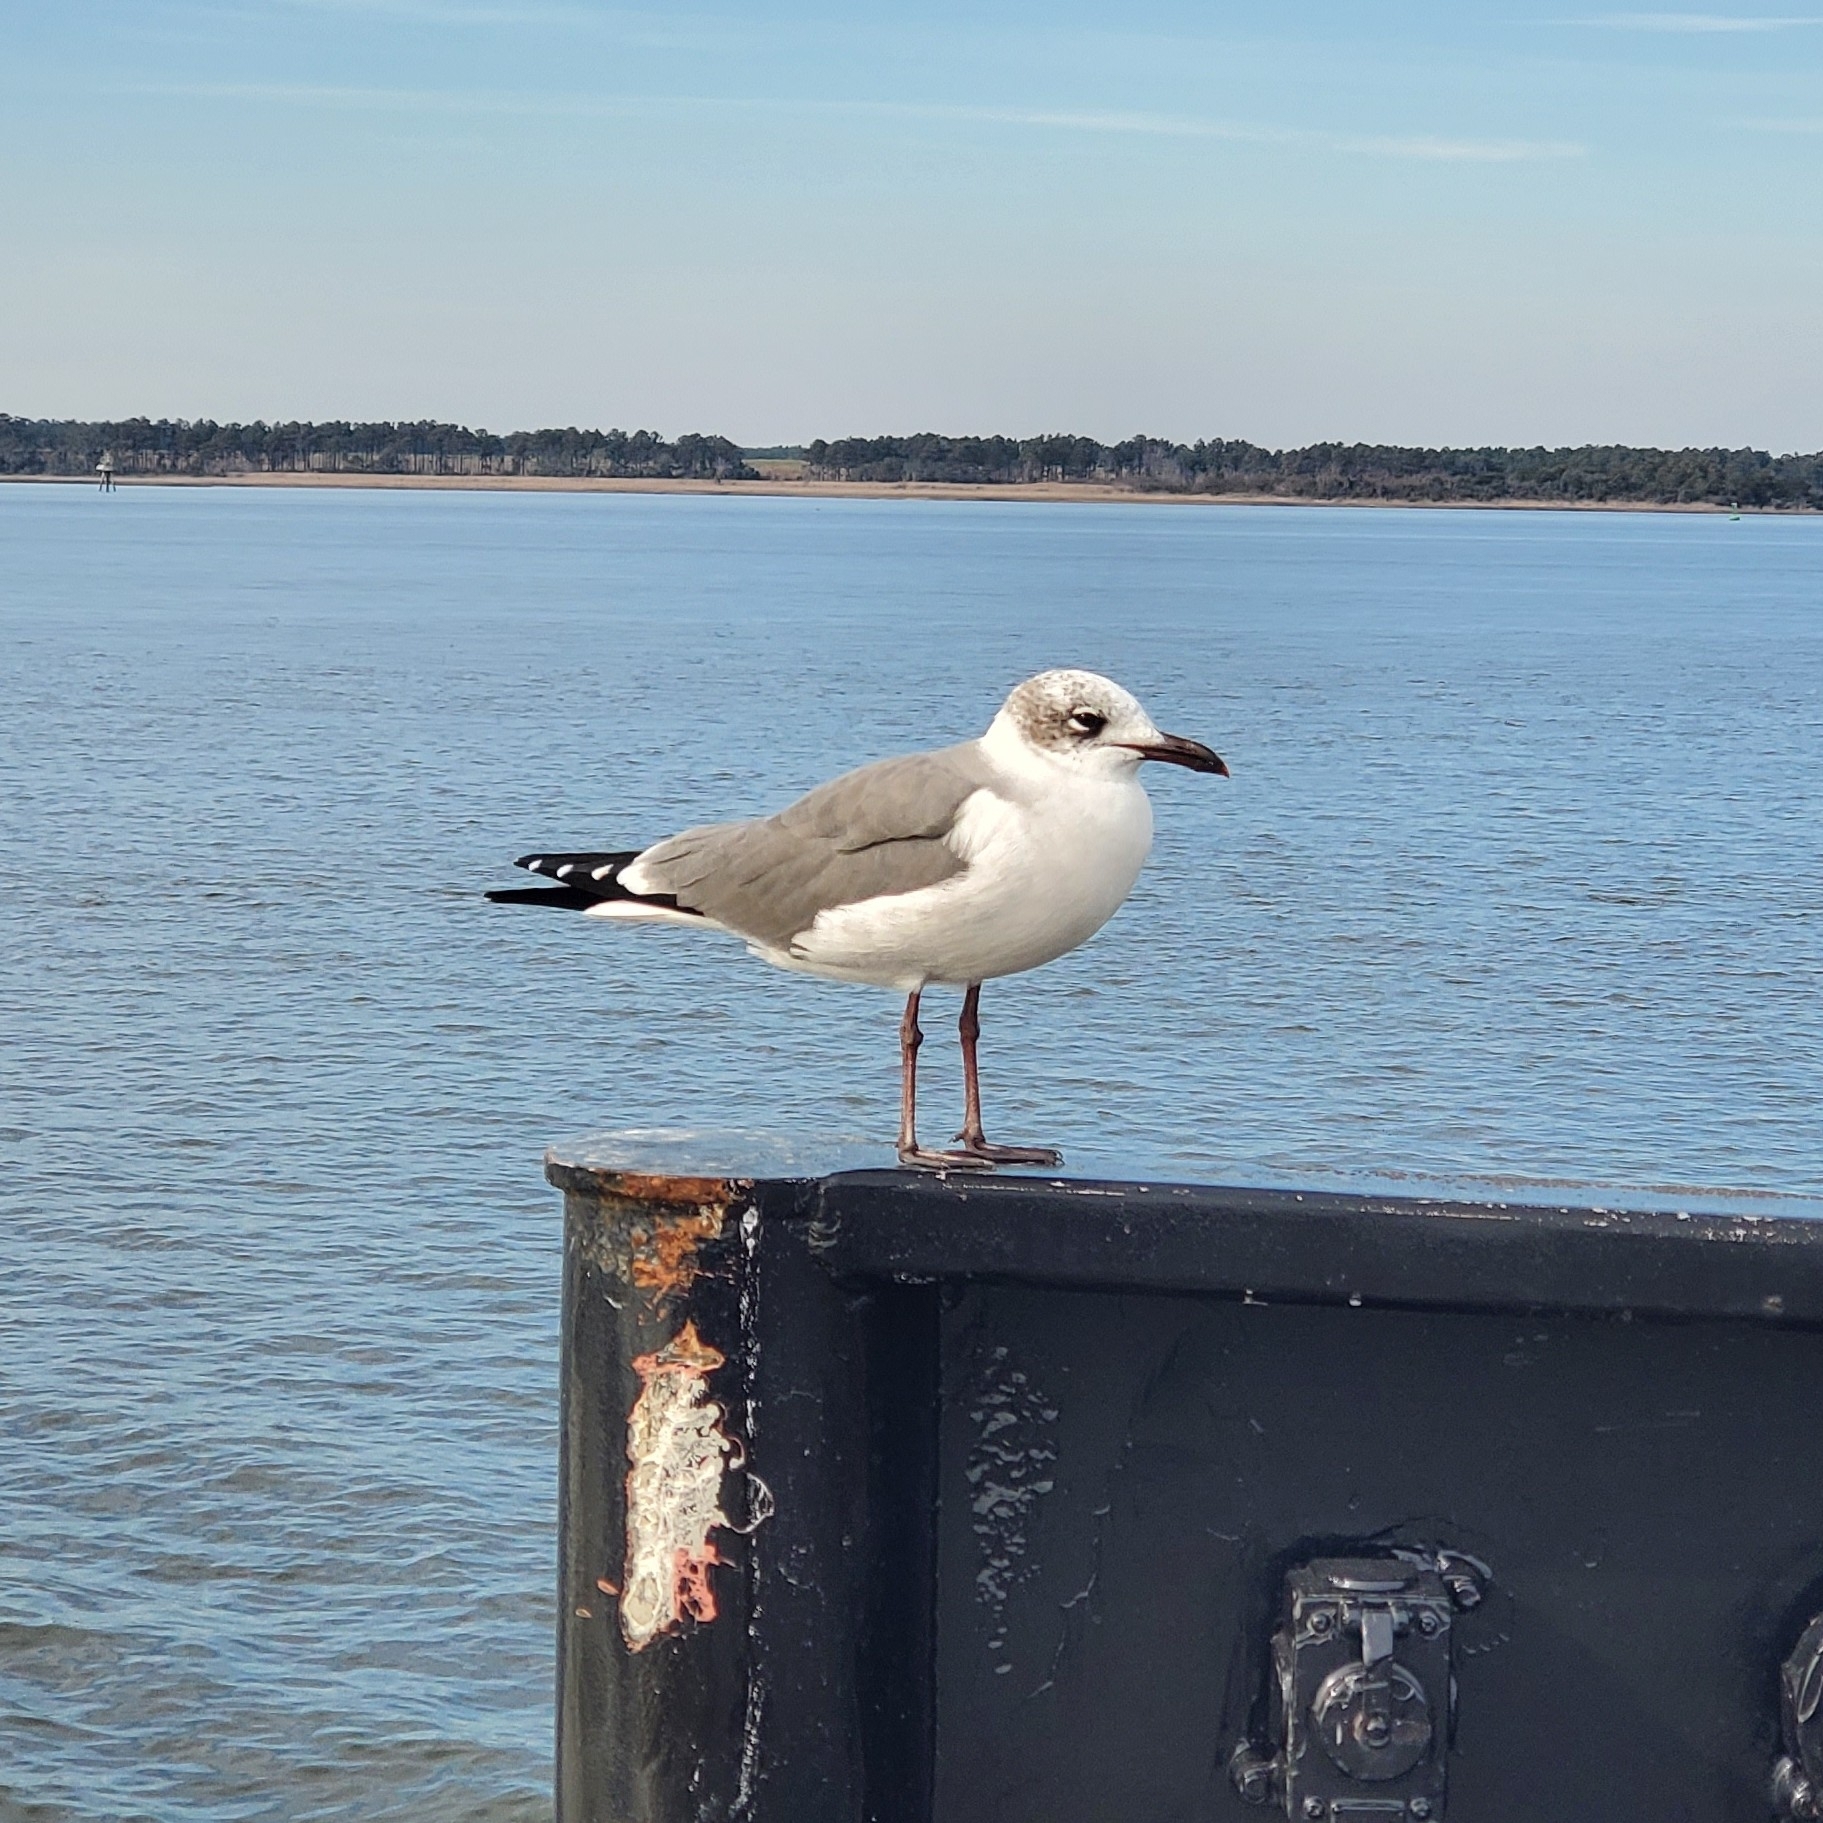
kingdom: Animalia
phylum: Chordata
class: Aves
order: Charadriiformes
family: Laridae
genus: Leucophaeus
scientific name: Leucophaeus atricilla
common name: Laughing gull
